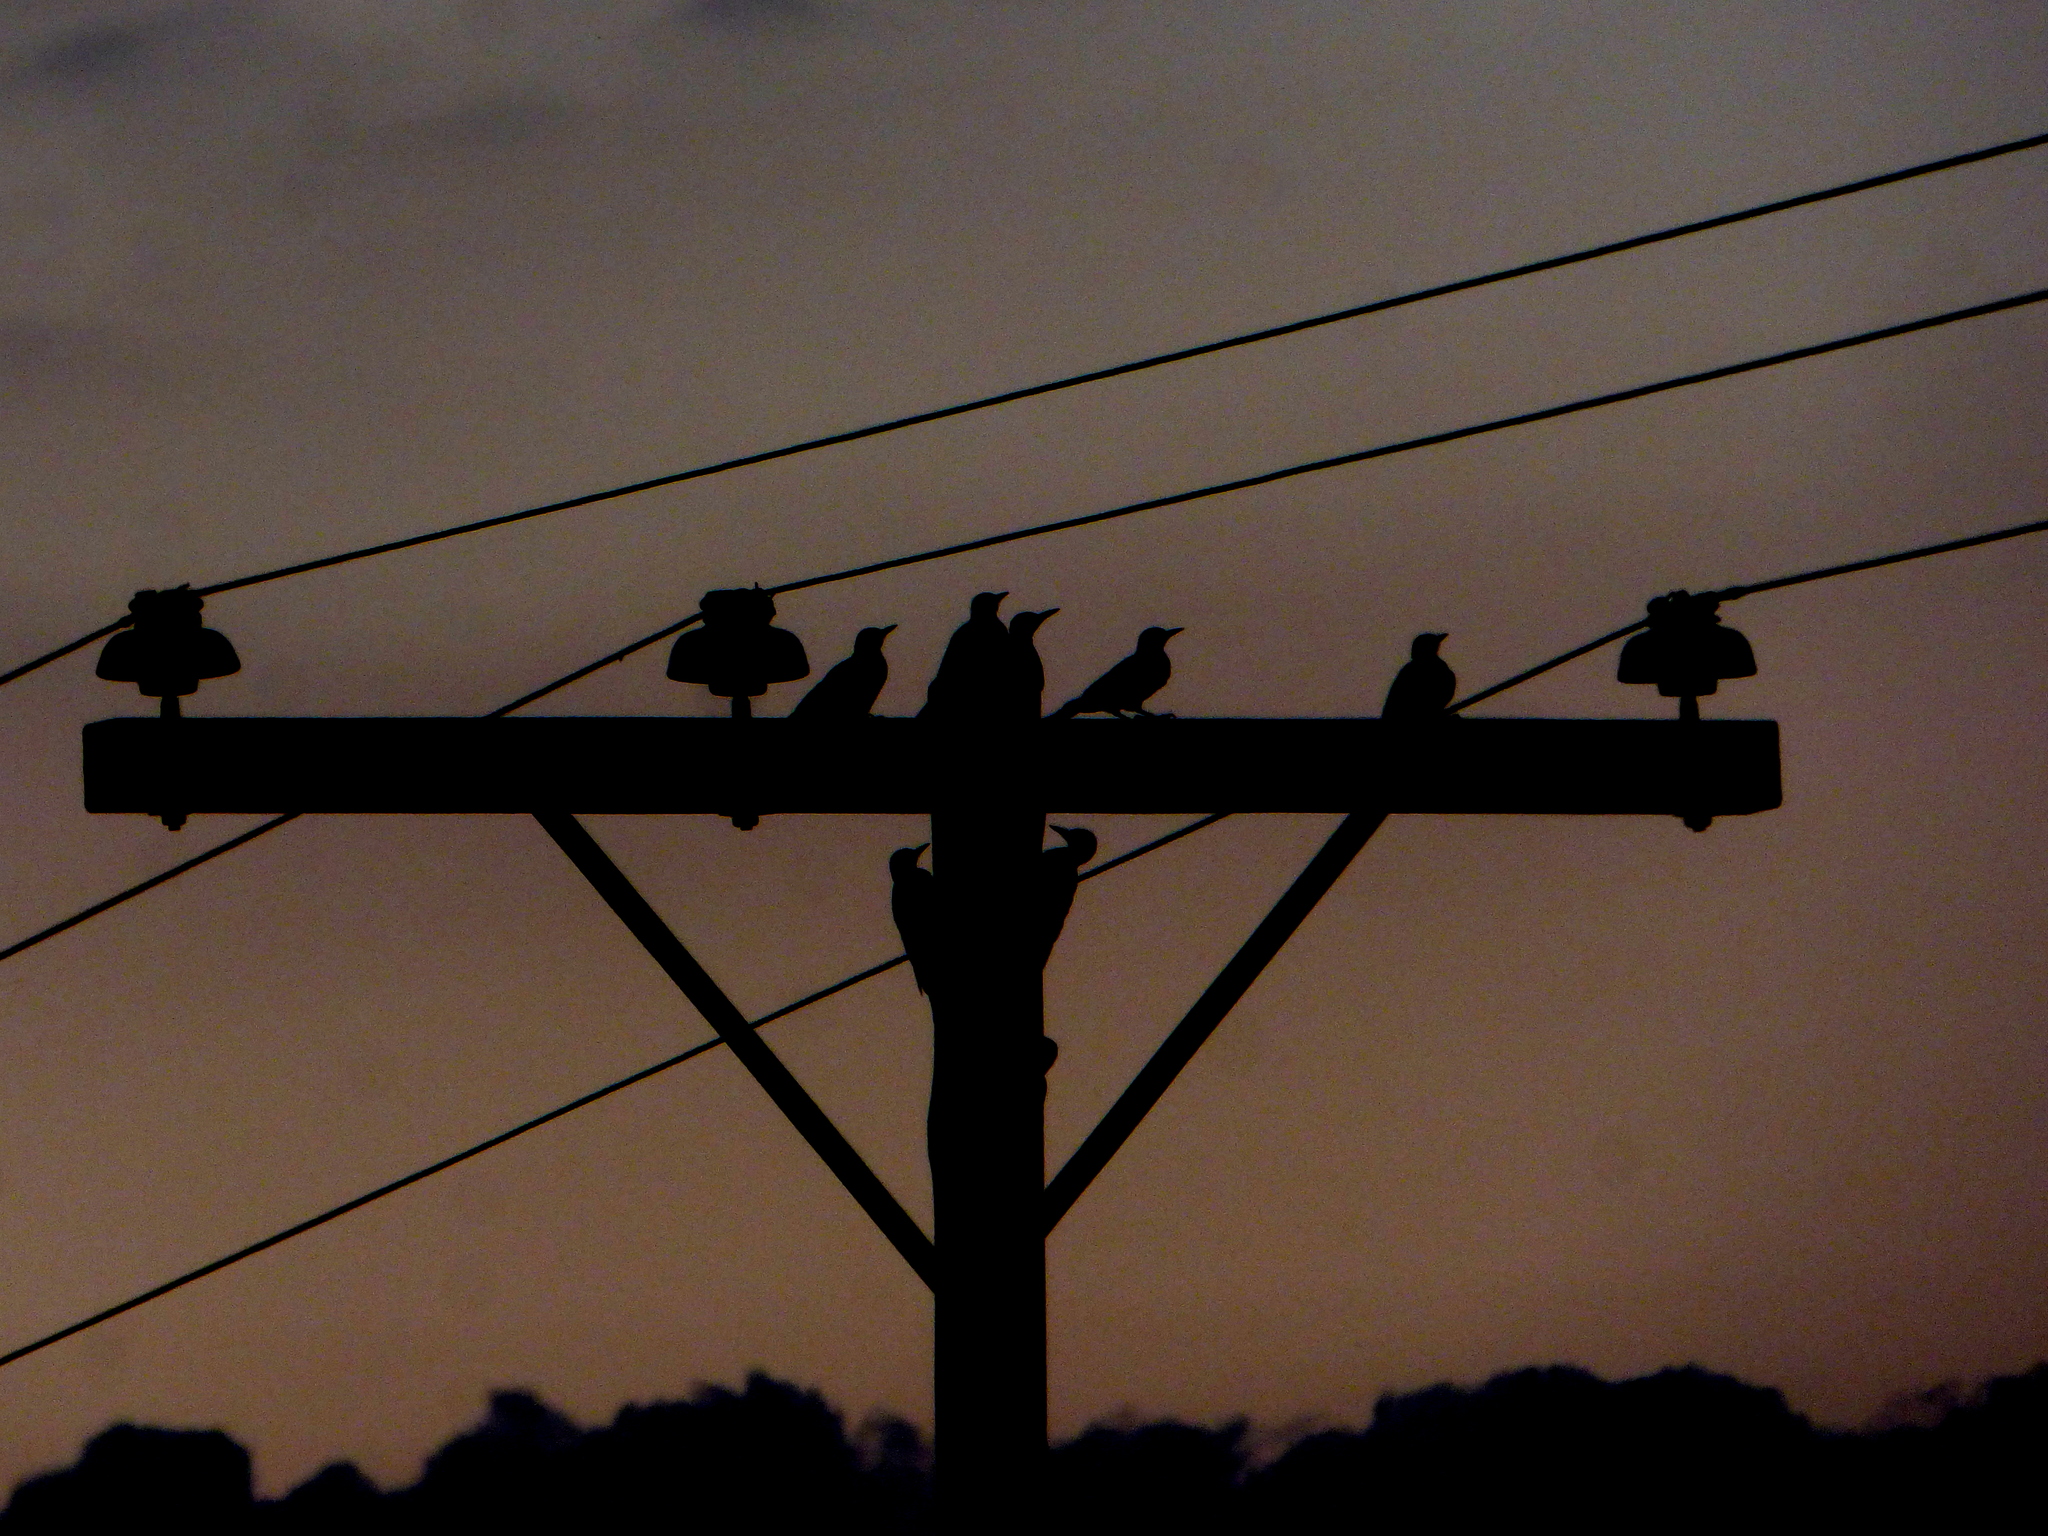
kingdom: Animalia
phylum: Chordata
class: Aves
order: Piciformes
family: Picidae
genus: Melanerpes
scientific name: Melanerpes candidus
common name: White woodpecker
